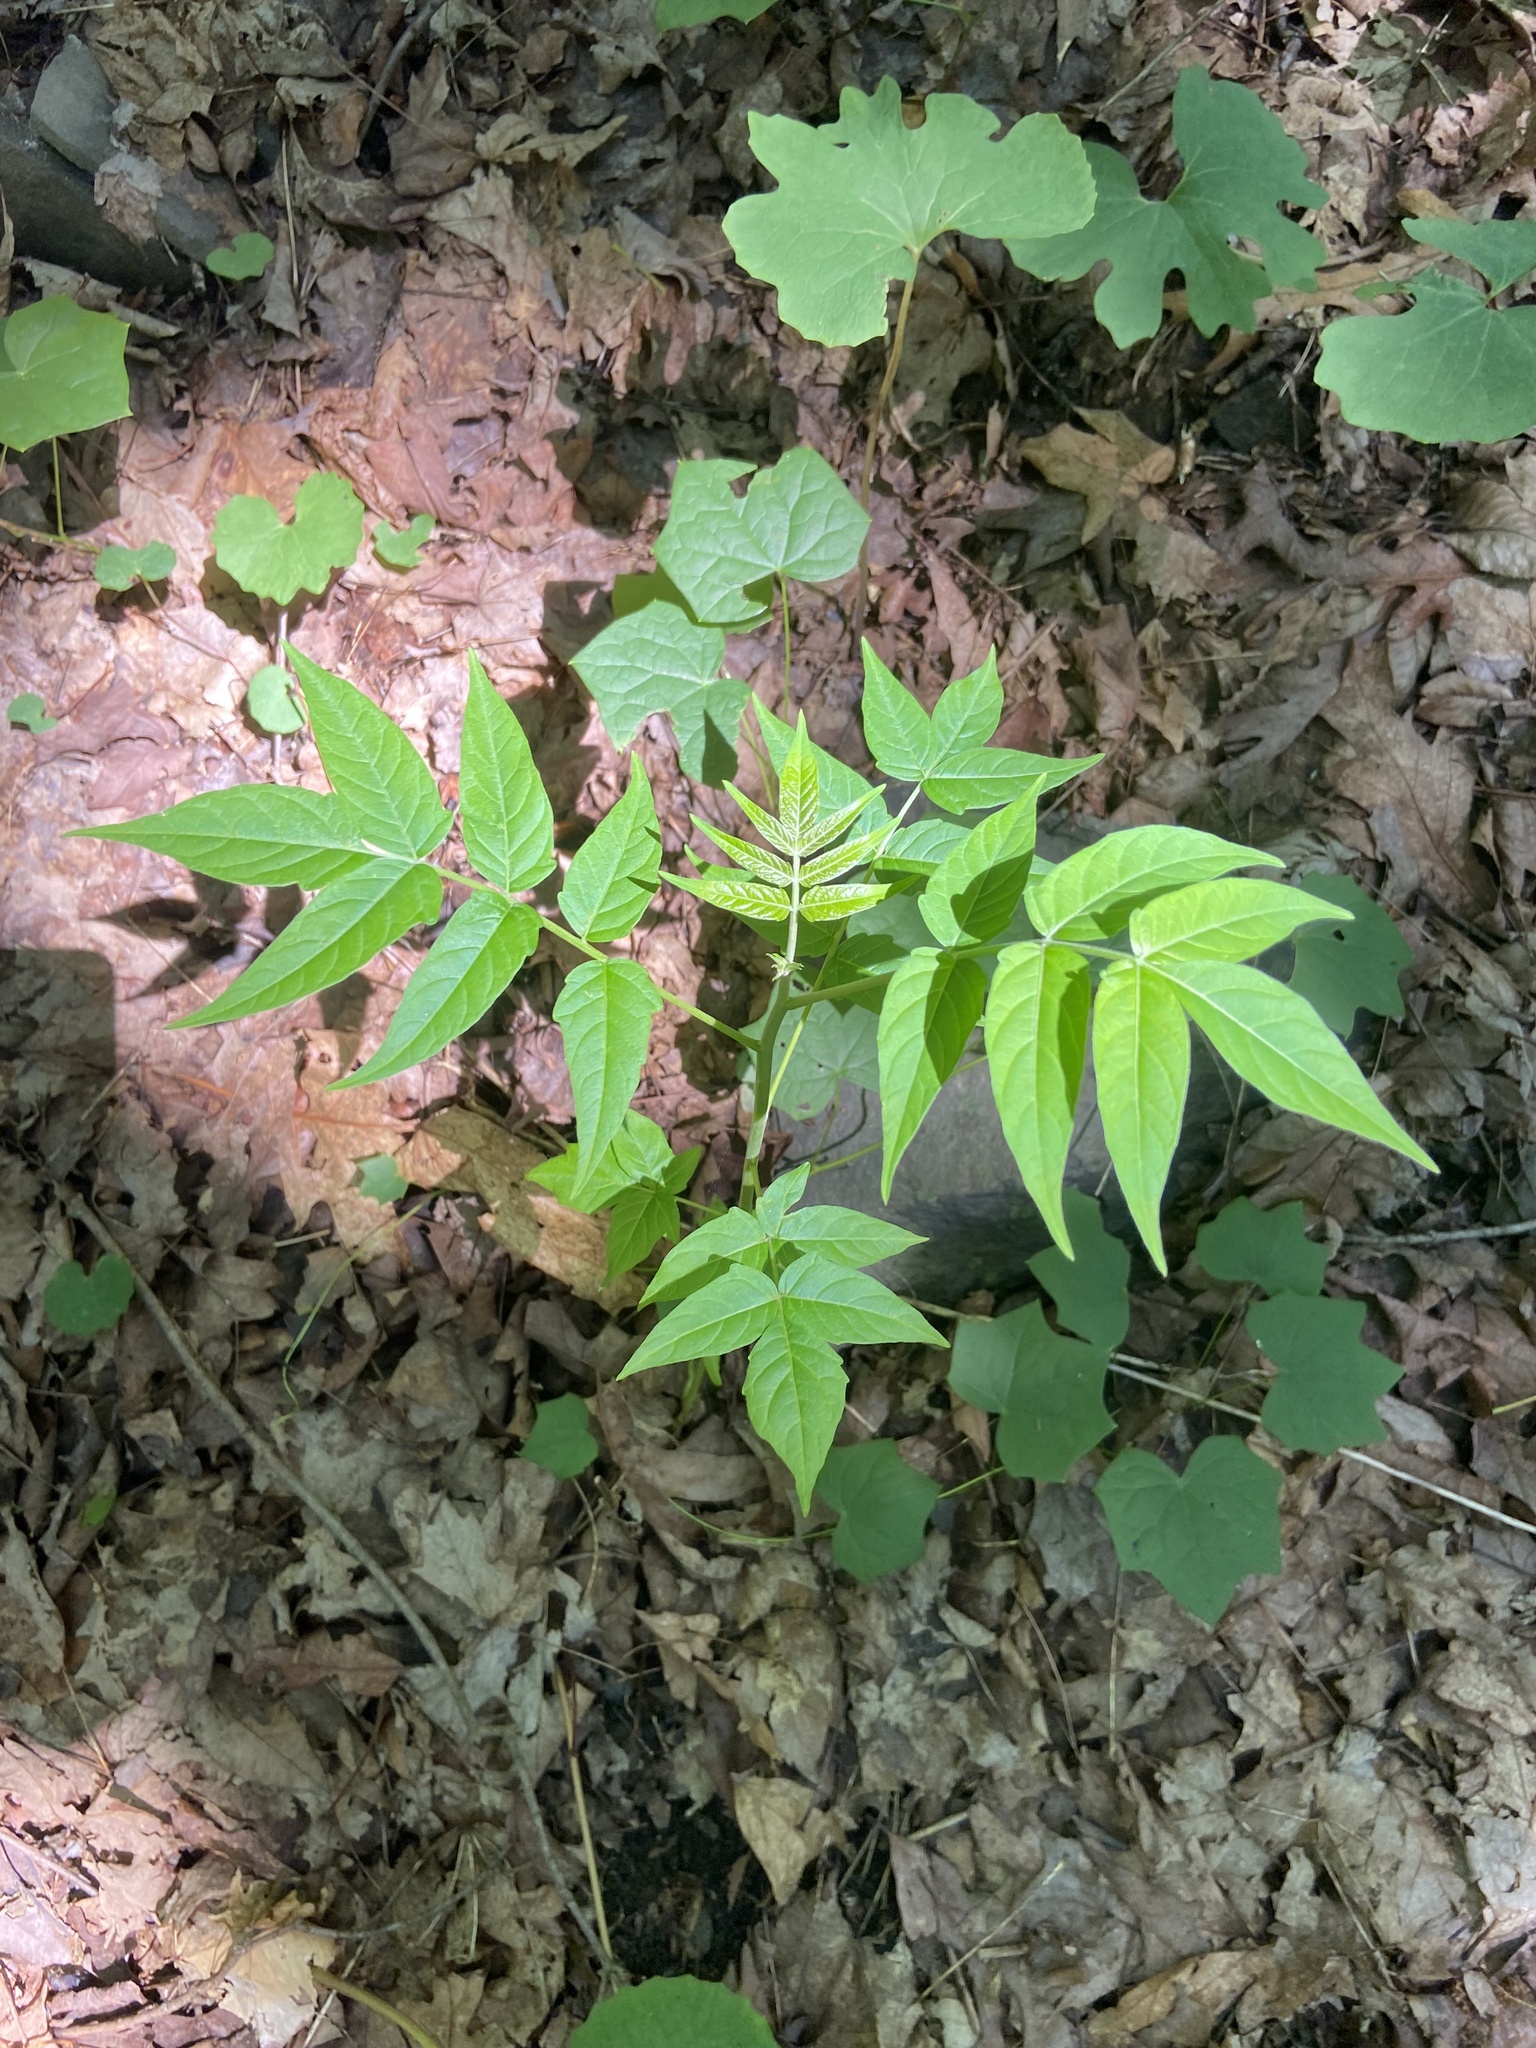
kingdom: Plantae
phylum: Tracheophyta
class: Magnoliopsida
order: Sapindales
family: Simaroubaceae
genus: Ailanthus
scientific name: Ailanthus altissima
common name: Tree-of-heaven
